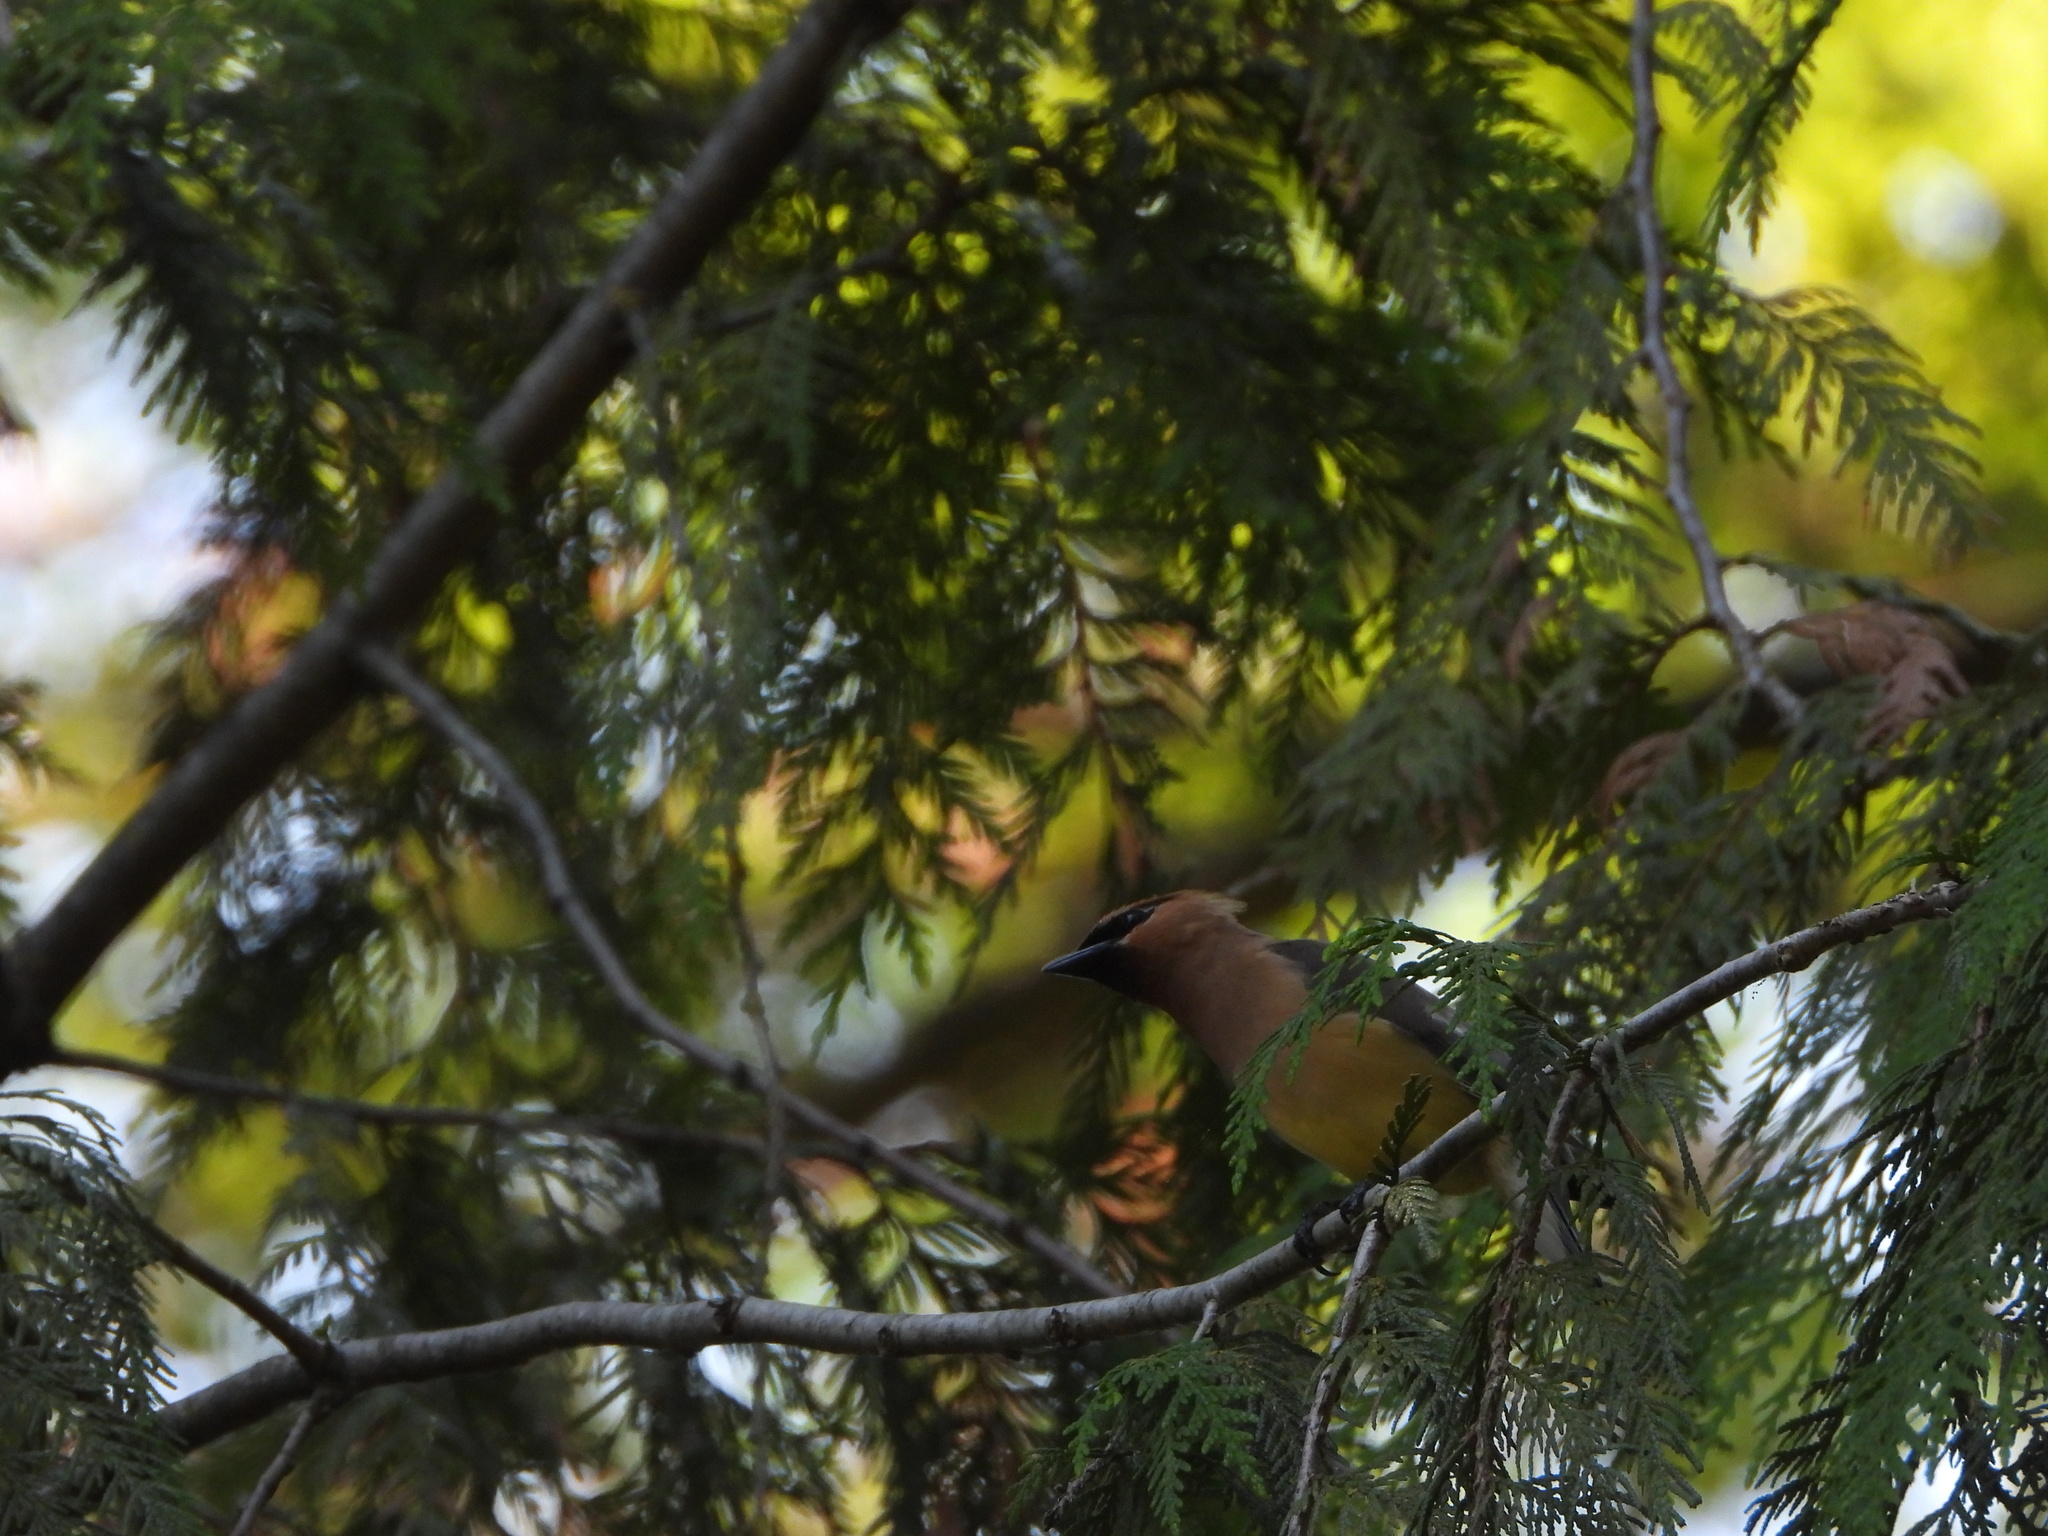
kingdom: Animalia
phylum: Chordata
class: Aves
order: Passeriformes
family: Bombycillidae
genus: Bombycilla
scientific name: Bombycilla cedrorum
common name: Cedar waxwing
